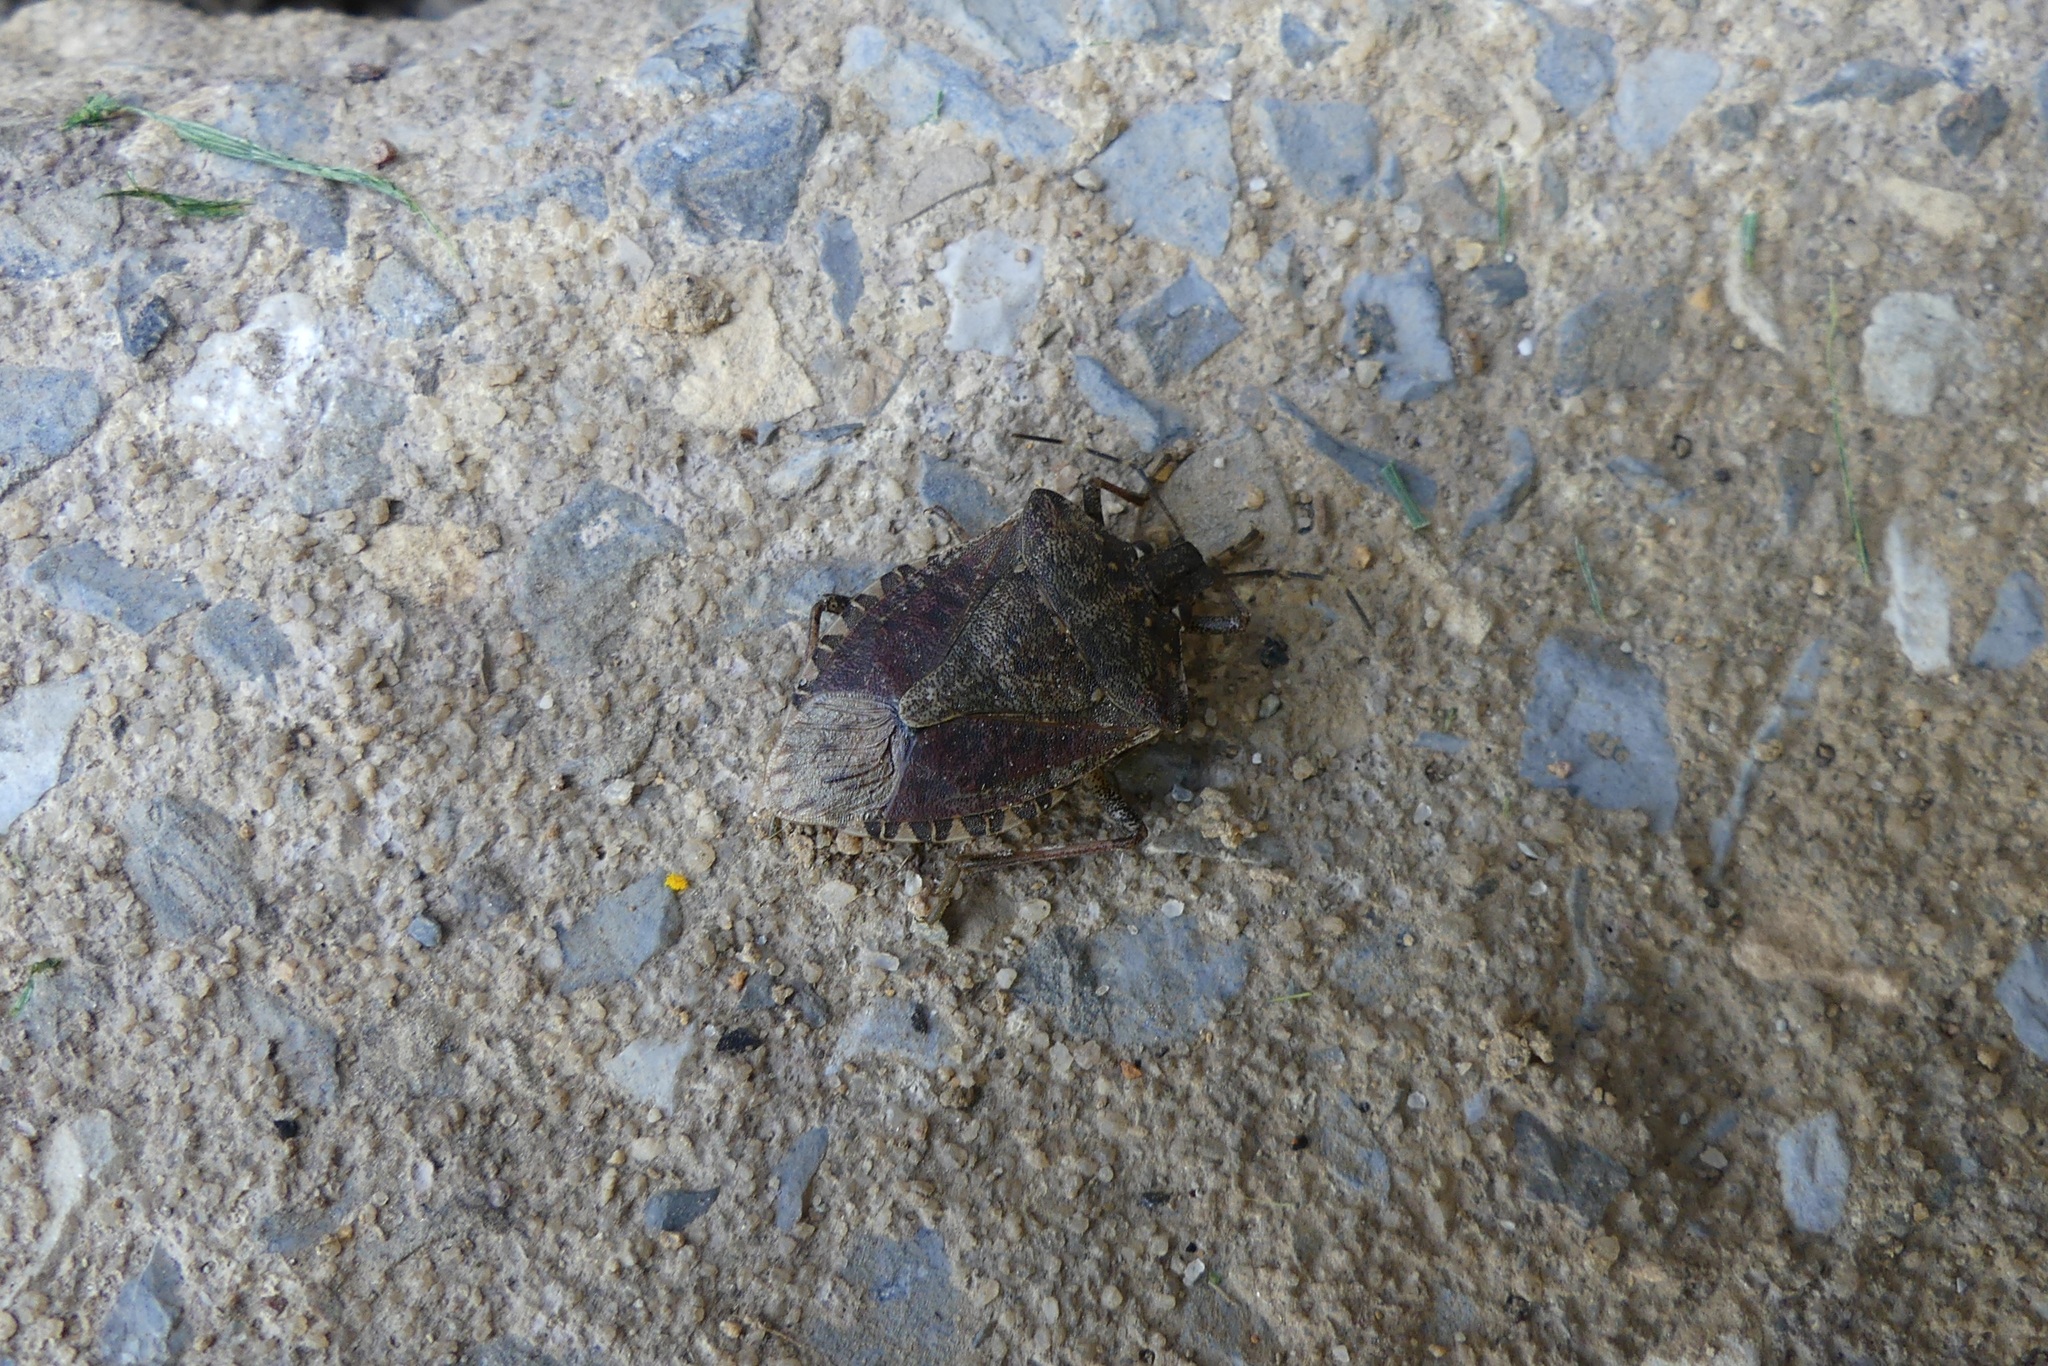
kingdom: Animalia
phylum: Arthropoda
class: Insecta
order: Hemiptera
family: Pentatomidae
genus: Halyomorpha
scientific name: Halyomorpha halys
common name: Brown marmorated stink bug
